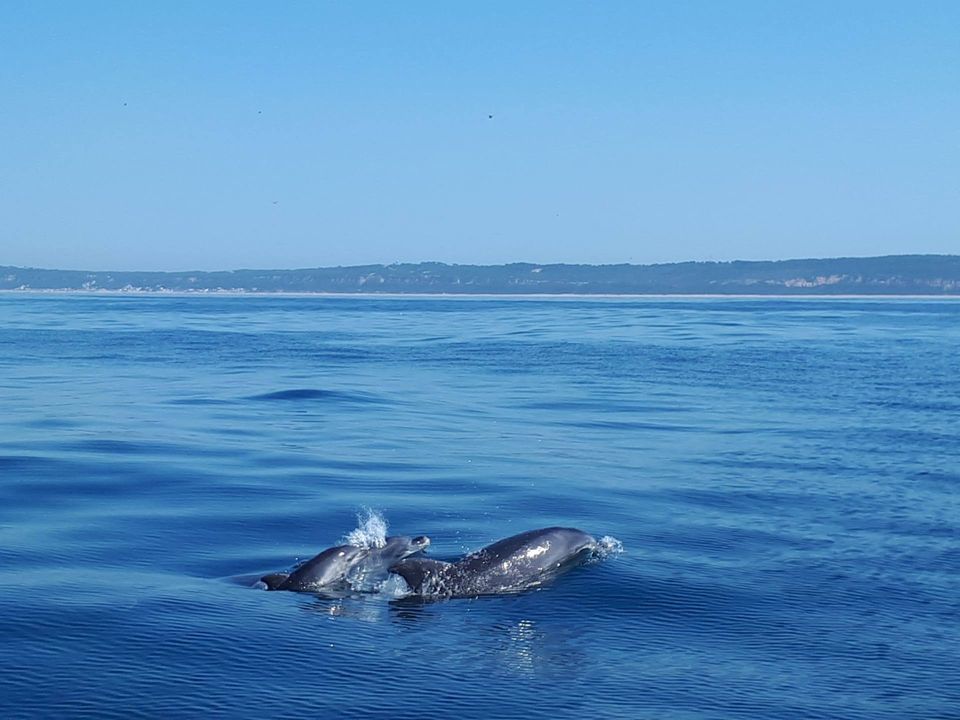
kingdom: Animalia
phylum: Chordata
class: Mammalia
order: Cetacea
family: Delphinidae
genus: Tursiops
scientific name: Tursiops truncatus
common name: Bottlenose dolphin
